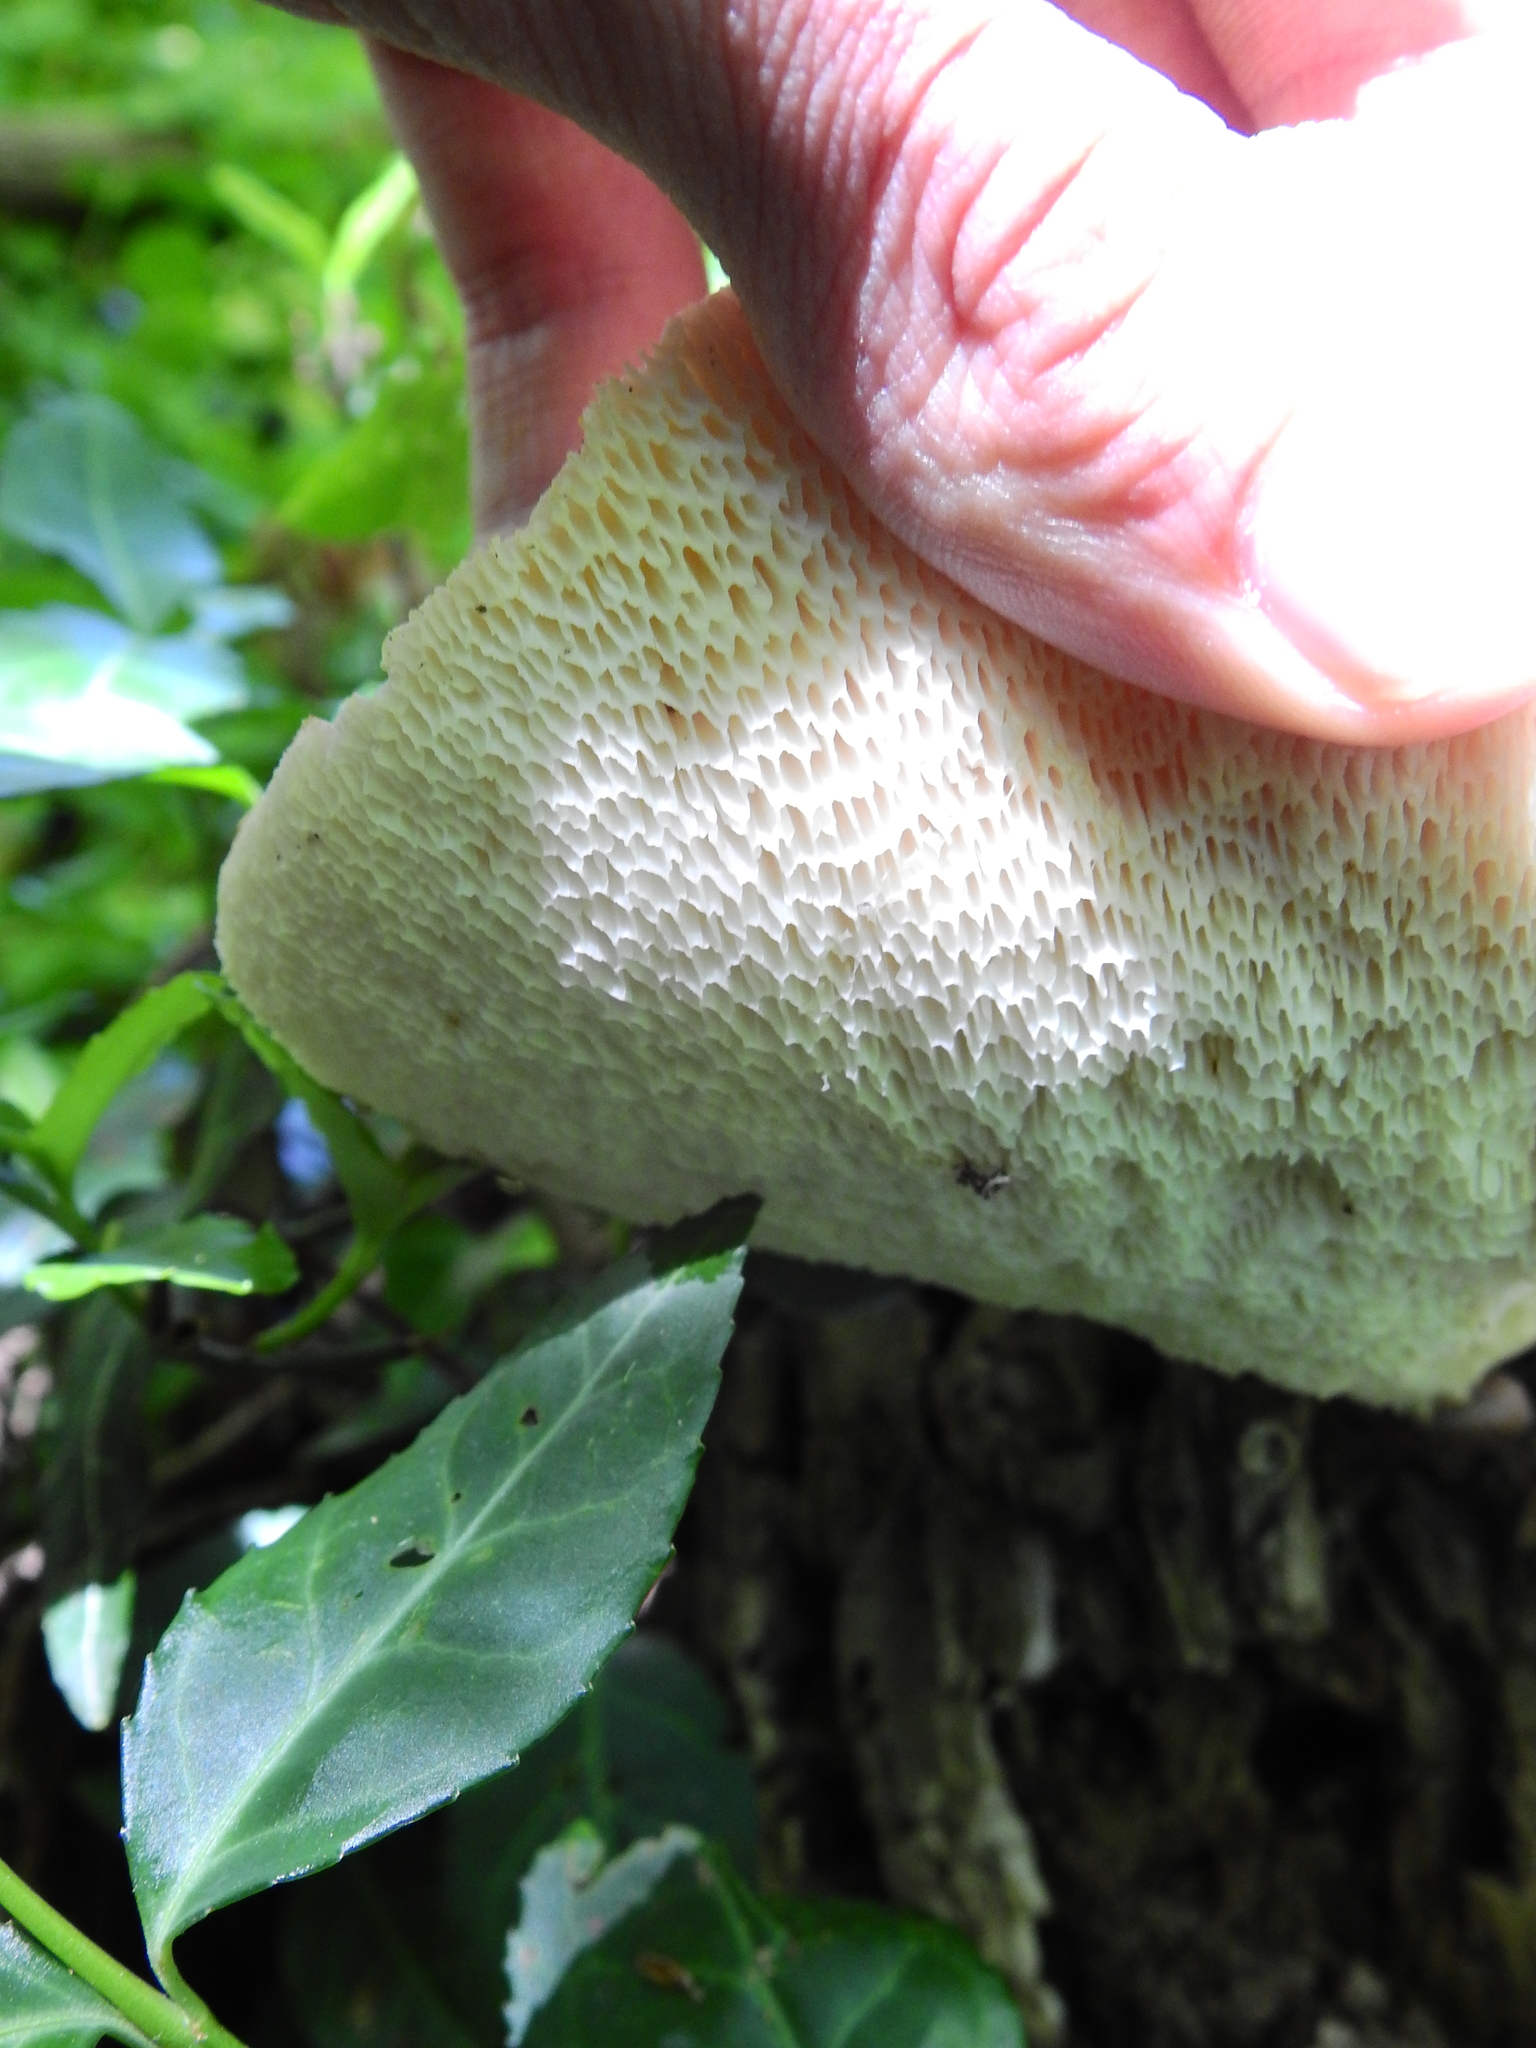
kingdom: Fungi
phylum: Basidiomycota
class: Agaricomycetes
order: Polyporales
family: Polyporaceae
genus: Cerioporus
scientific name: Cerioporus squamosus
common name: Dryad's saddle
